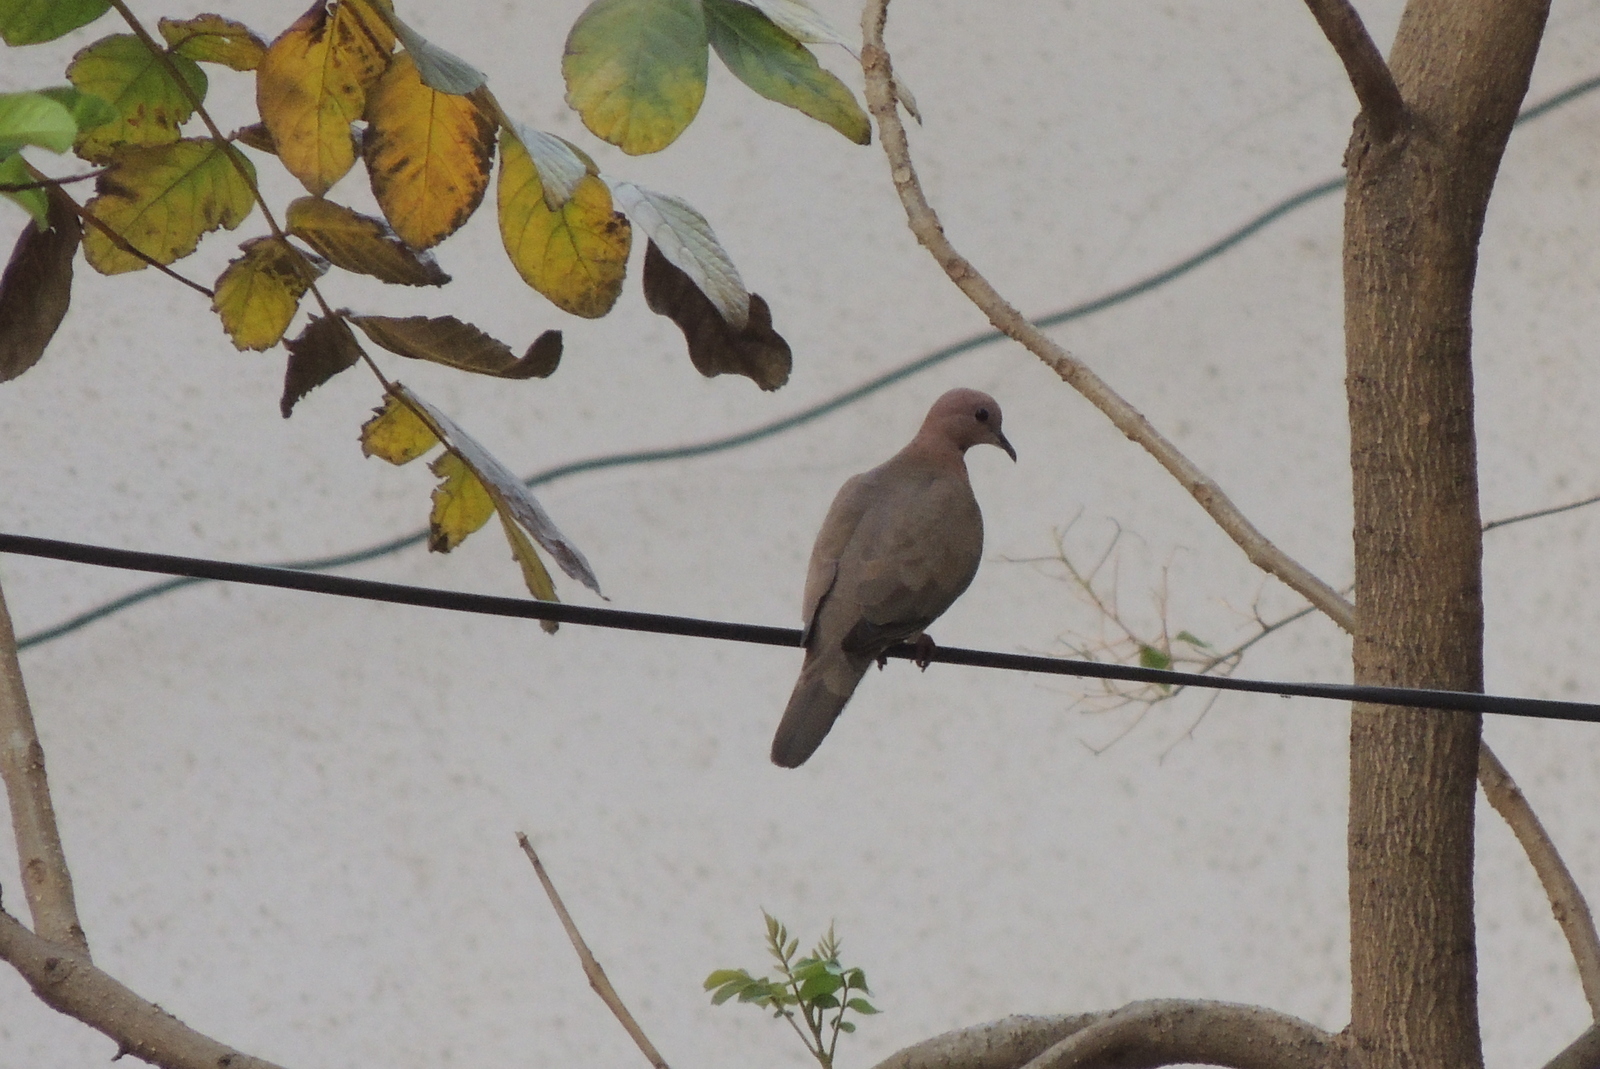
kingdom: Animalia
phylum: Chordata
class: Aves
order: Columbiformes
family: Columbidae
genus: Spilopelia
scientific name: Spilopelia senegalensis
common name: Laughing dove
